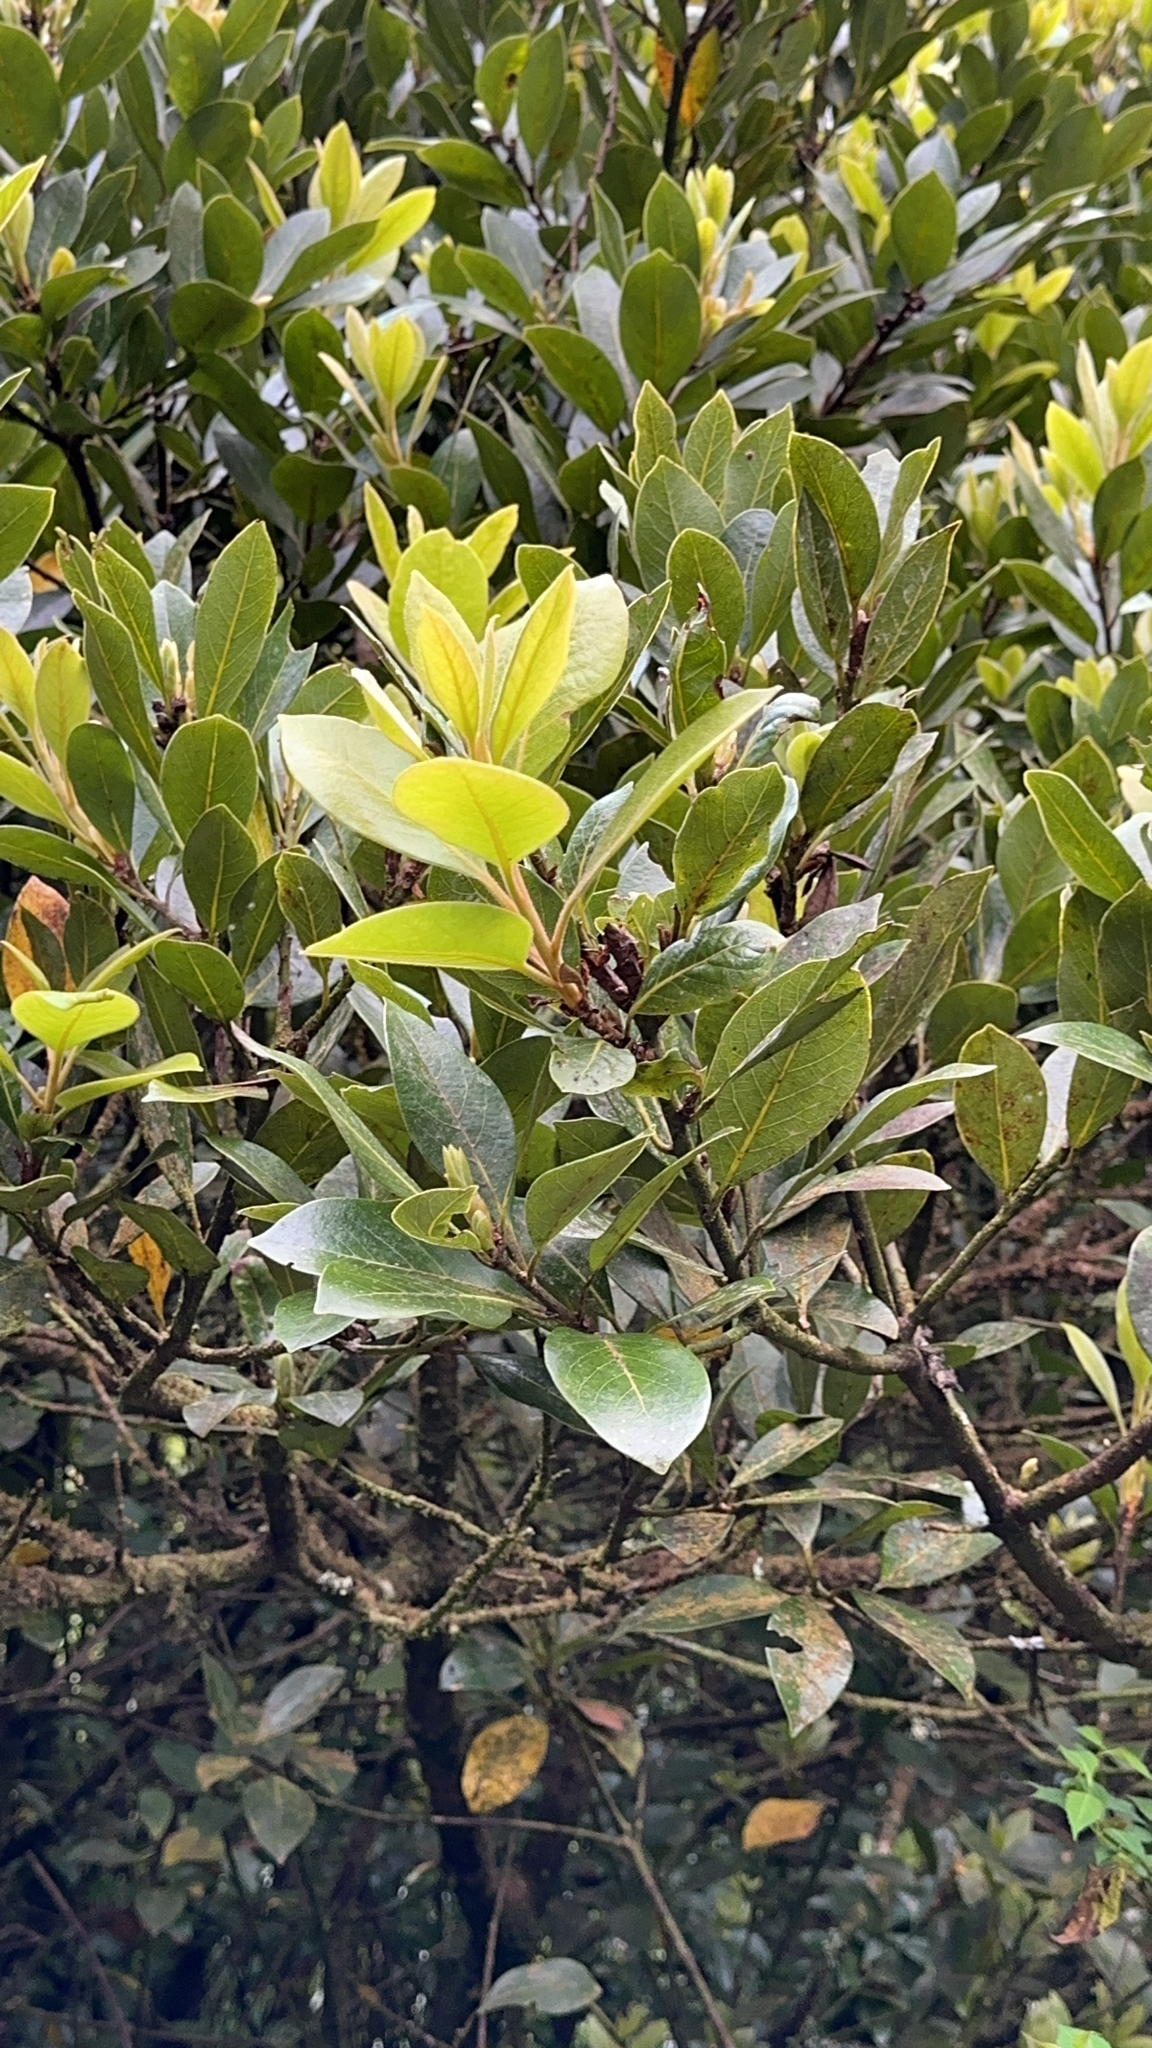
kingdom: Plantae
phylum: Tracheophyta
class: Magnoliopsida
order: Laurales
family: Lauraceae
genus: Laurus
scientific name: Laurus azorica
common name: Macaronesian laurel
